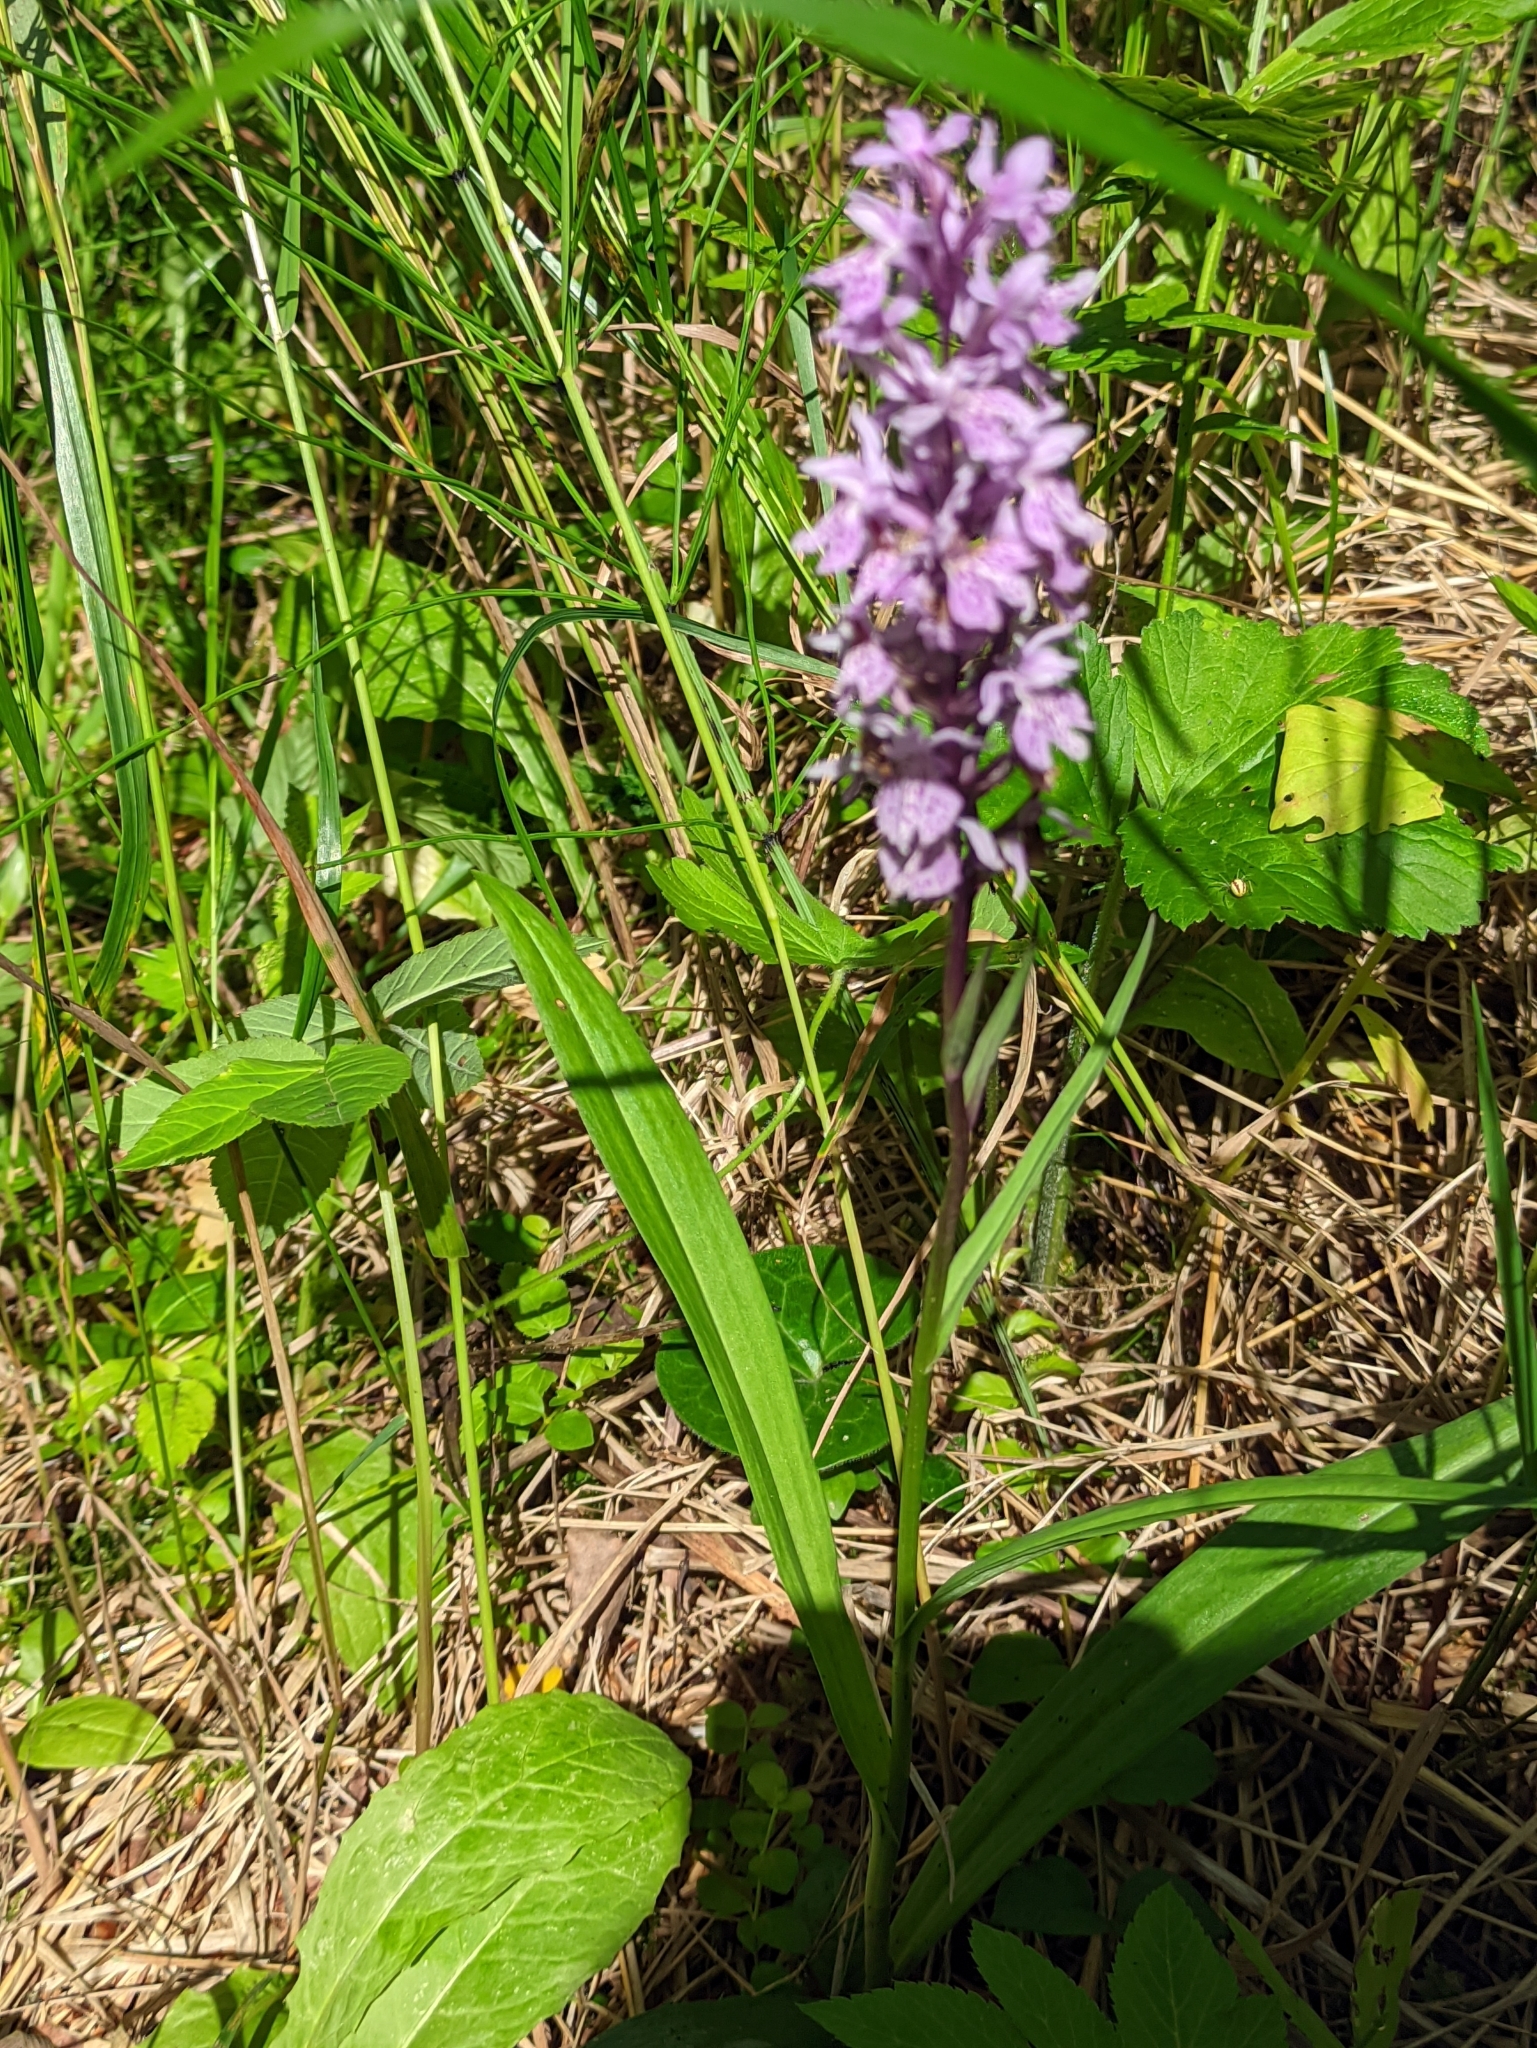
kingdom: Plantae
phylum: Tracheophyta
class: Liliopsida
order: Asparagales
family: Orchidaceae
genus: Dactylorhiza
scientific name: Dactylorhiza maculata
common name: Heath spotted-orchid
